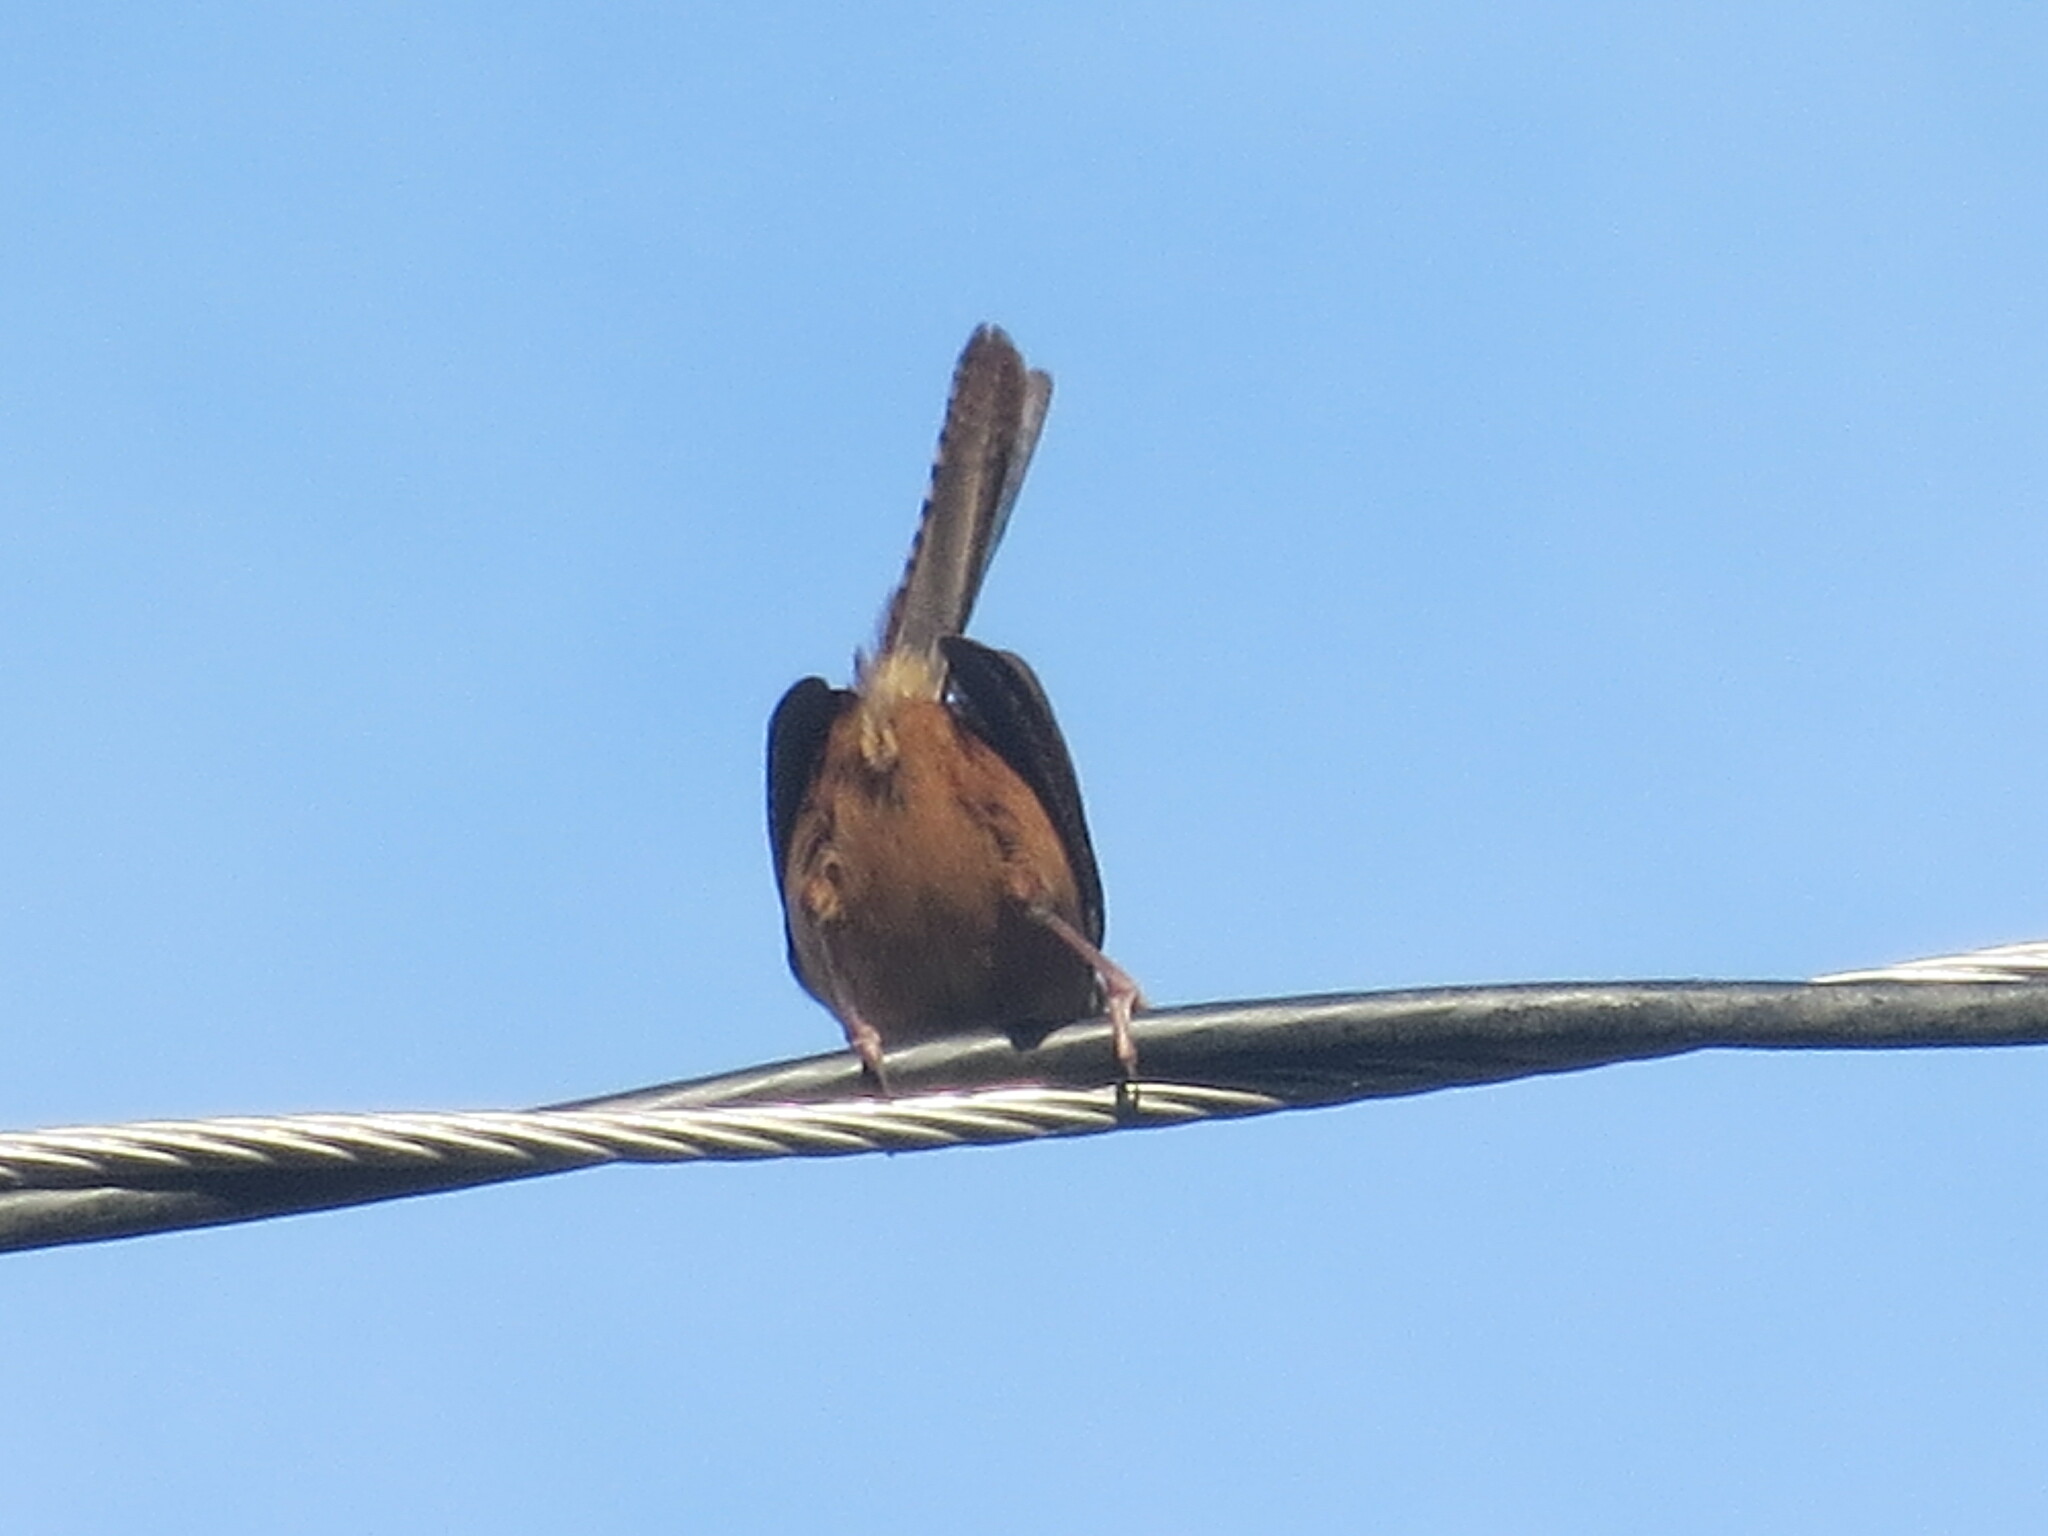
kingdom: Animalia
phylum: Chordata
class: Aves
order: Passeriformes
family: Troglodytidae
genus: Thryothorus
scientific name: Thryothorus ludovicianus
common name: Carolina wren
